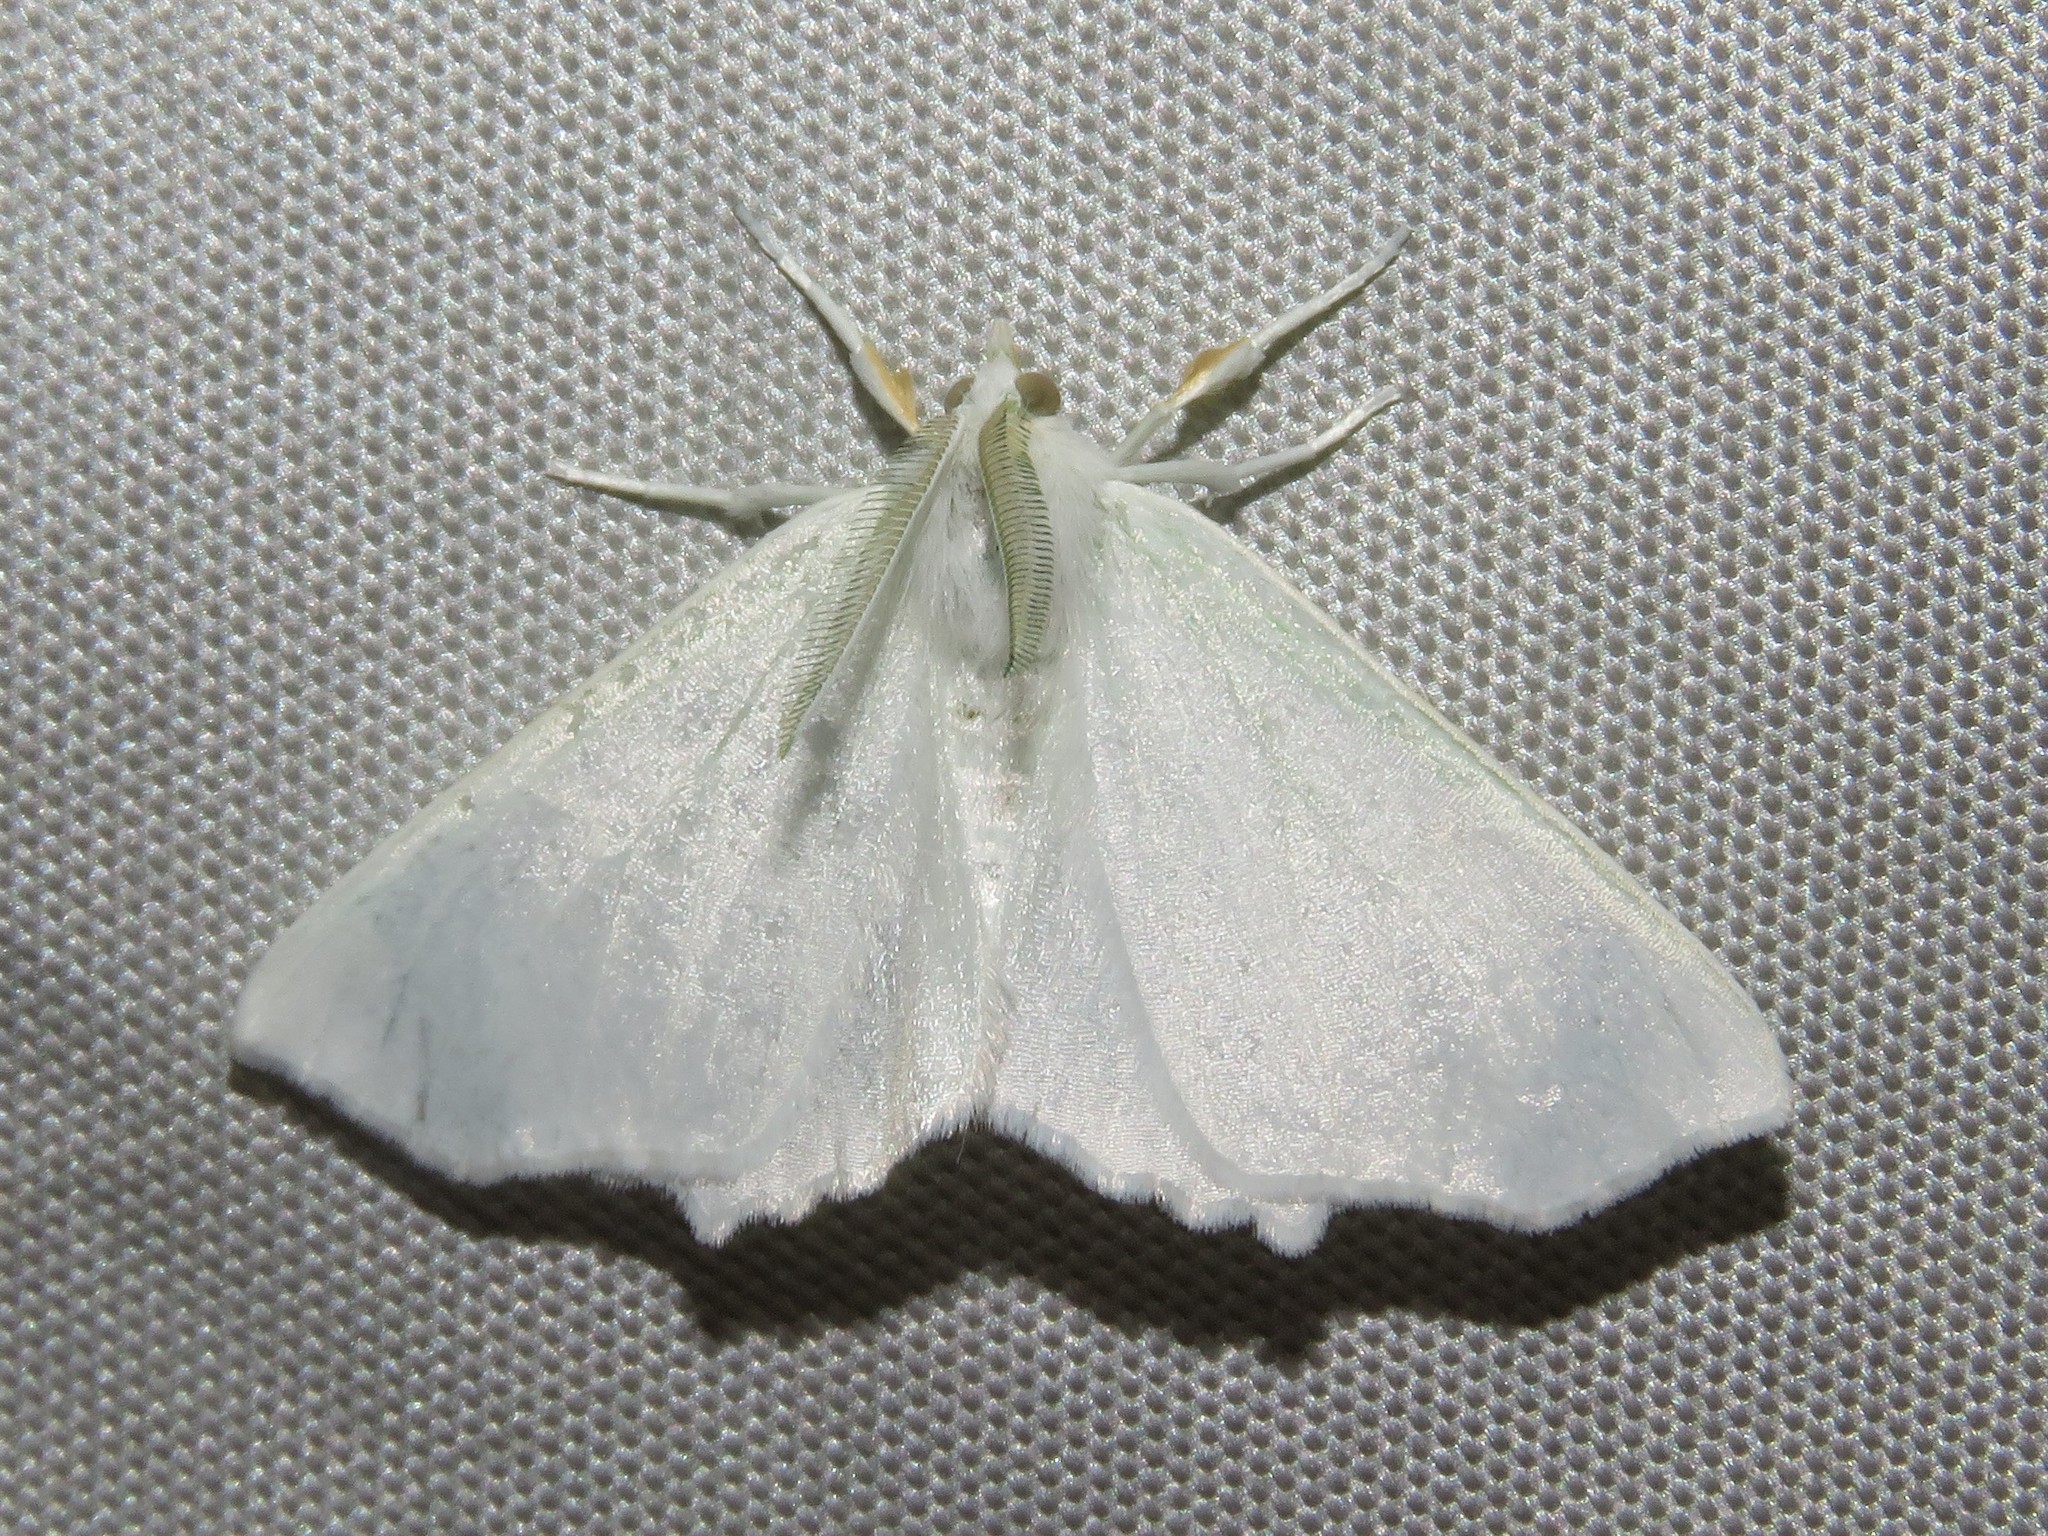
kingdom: Animalia
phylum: Arthropoda
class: Insecta
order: Lepidoptera
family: Geometridae
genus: Ennomos
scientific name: Ennomos subsignaria
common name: Elm spanworm
